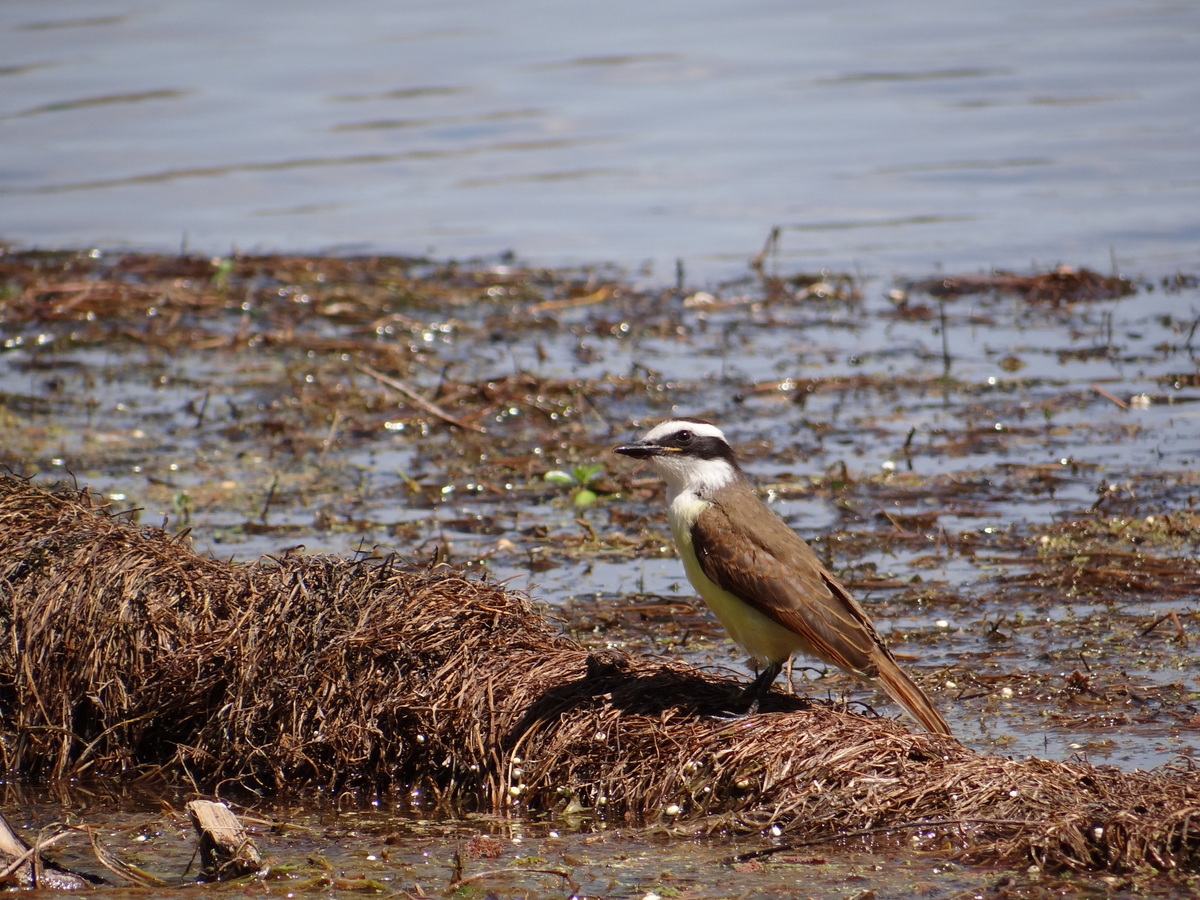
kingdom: Animalia
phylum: Chordata
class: Aves
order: Passeriformes
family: Tyrannidae
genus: Pitangus
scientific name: Pitangus sulphuratus
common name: Great kiskadee
